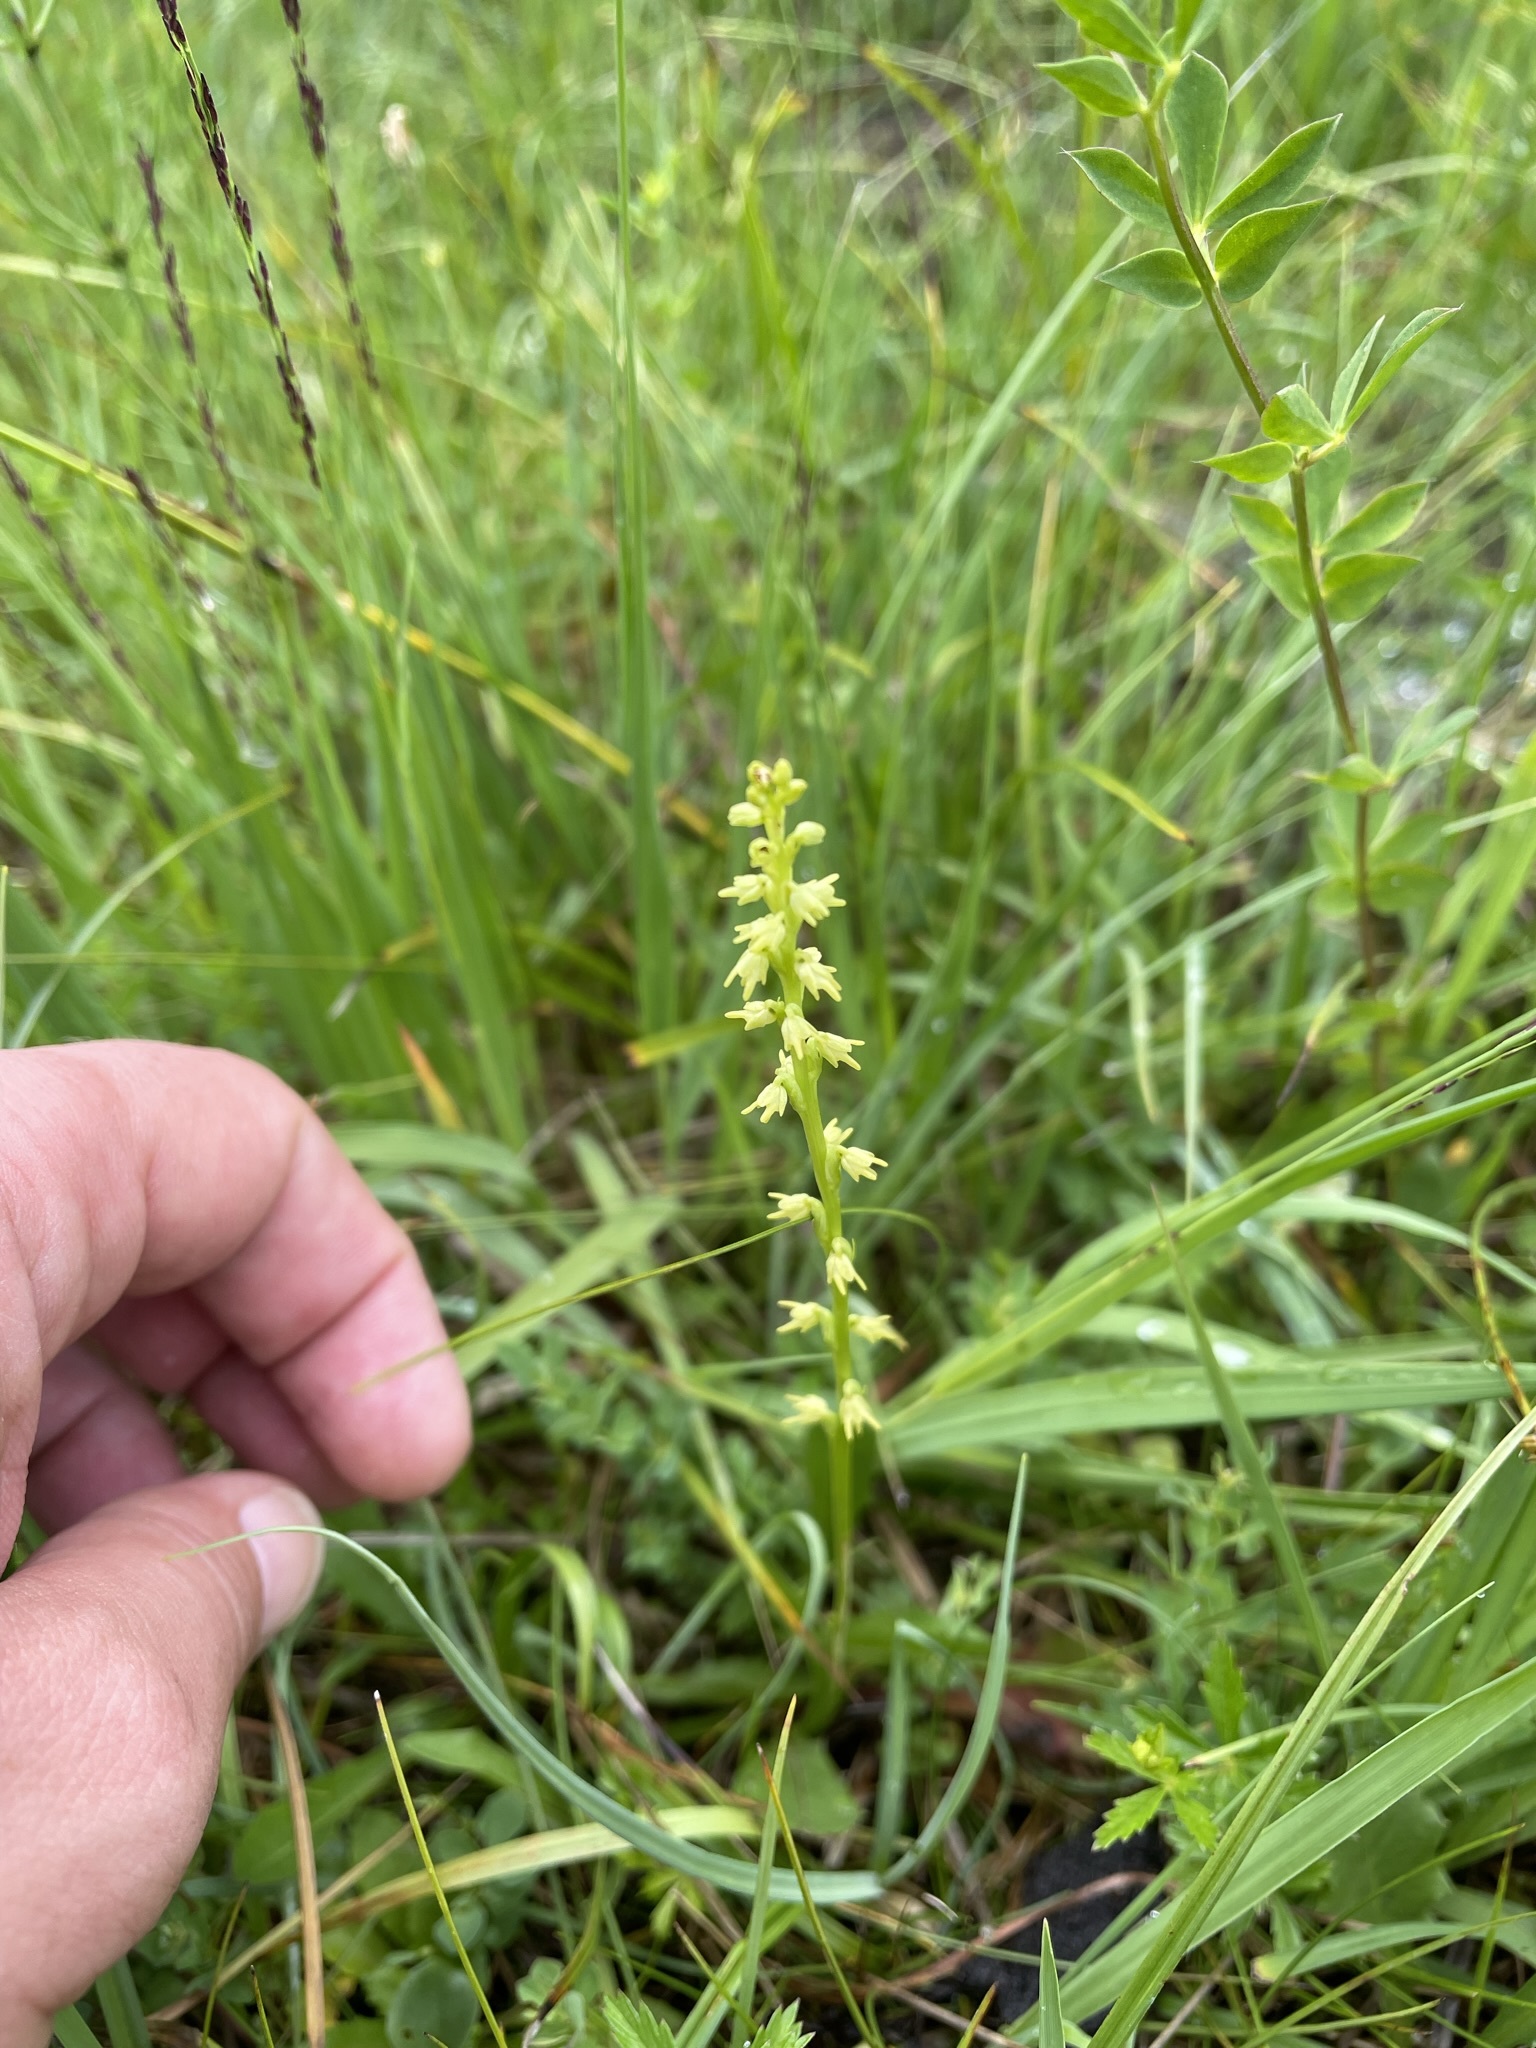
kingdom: Plantae
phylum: Tracheophyta
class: Liliopsida
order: Asparagales
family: Orchidaceae
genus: Herminium
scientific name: Herminium monorchis
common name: Musk orchid
